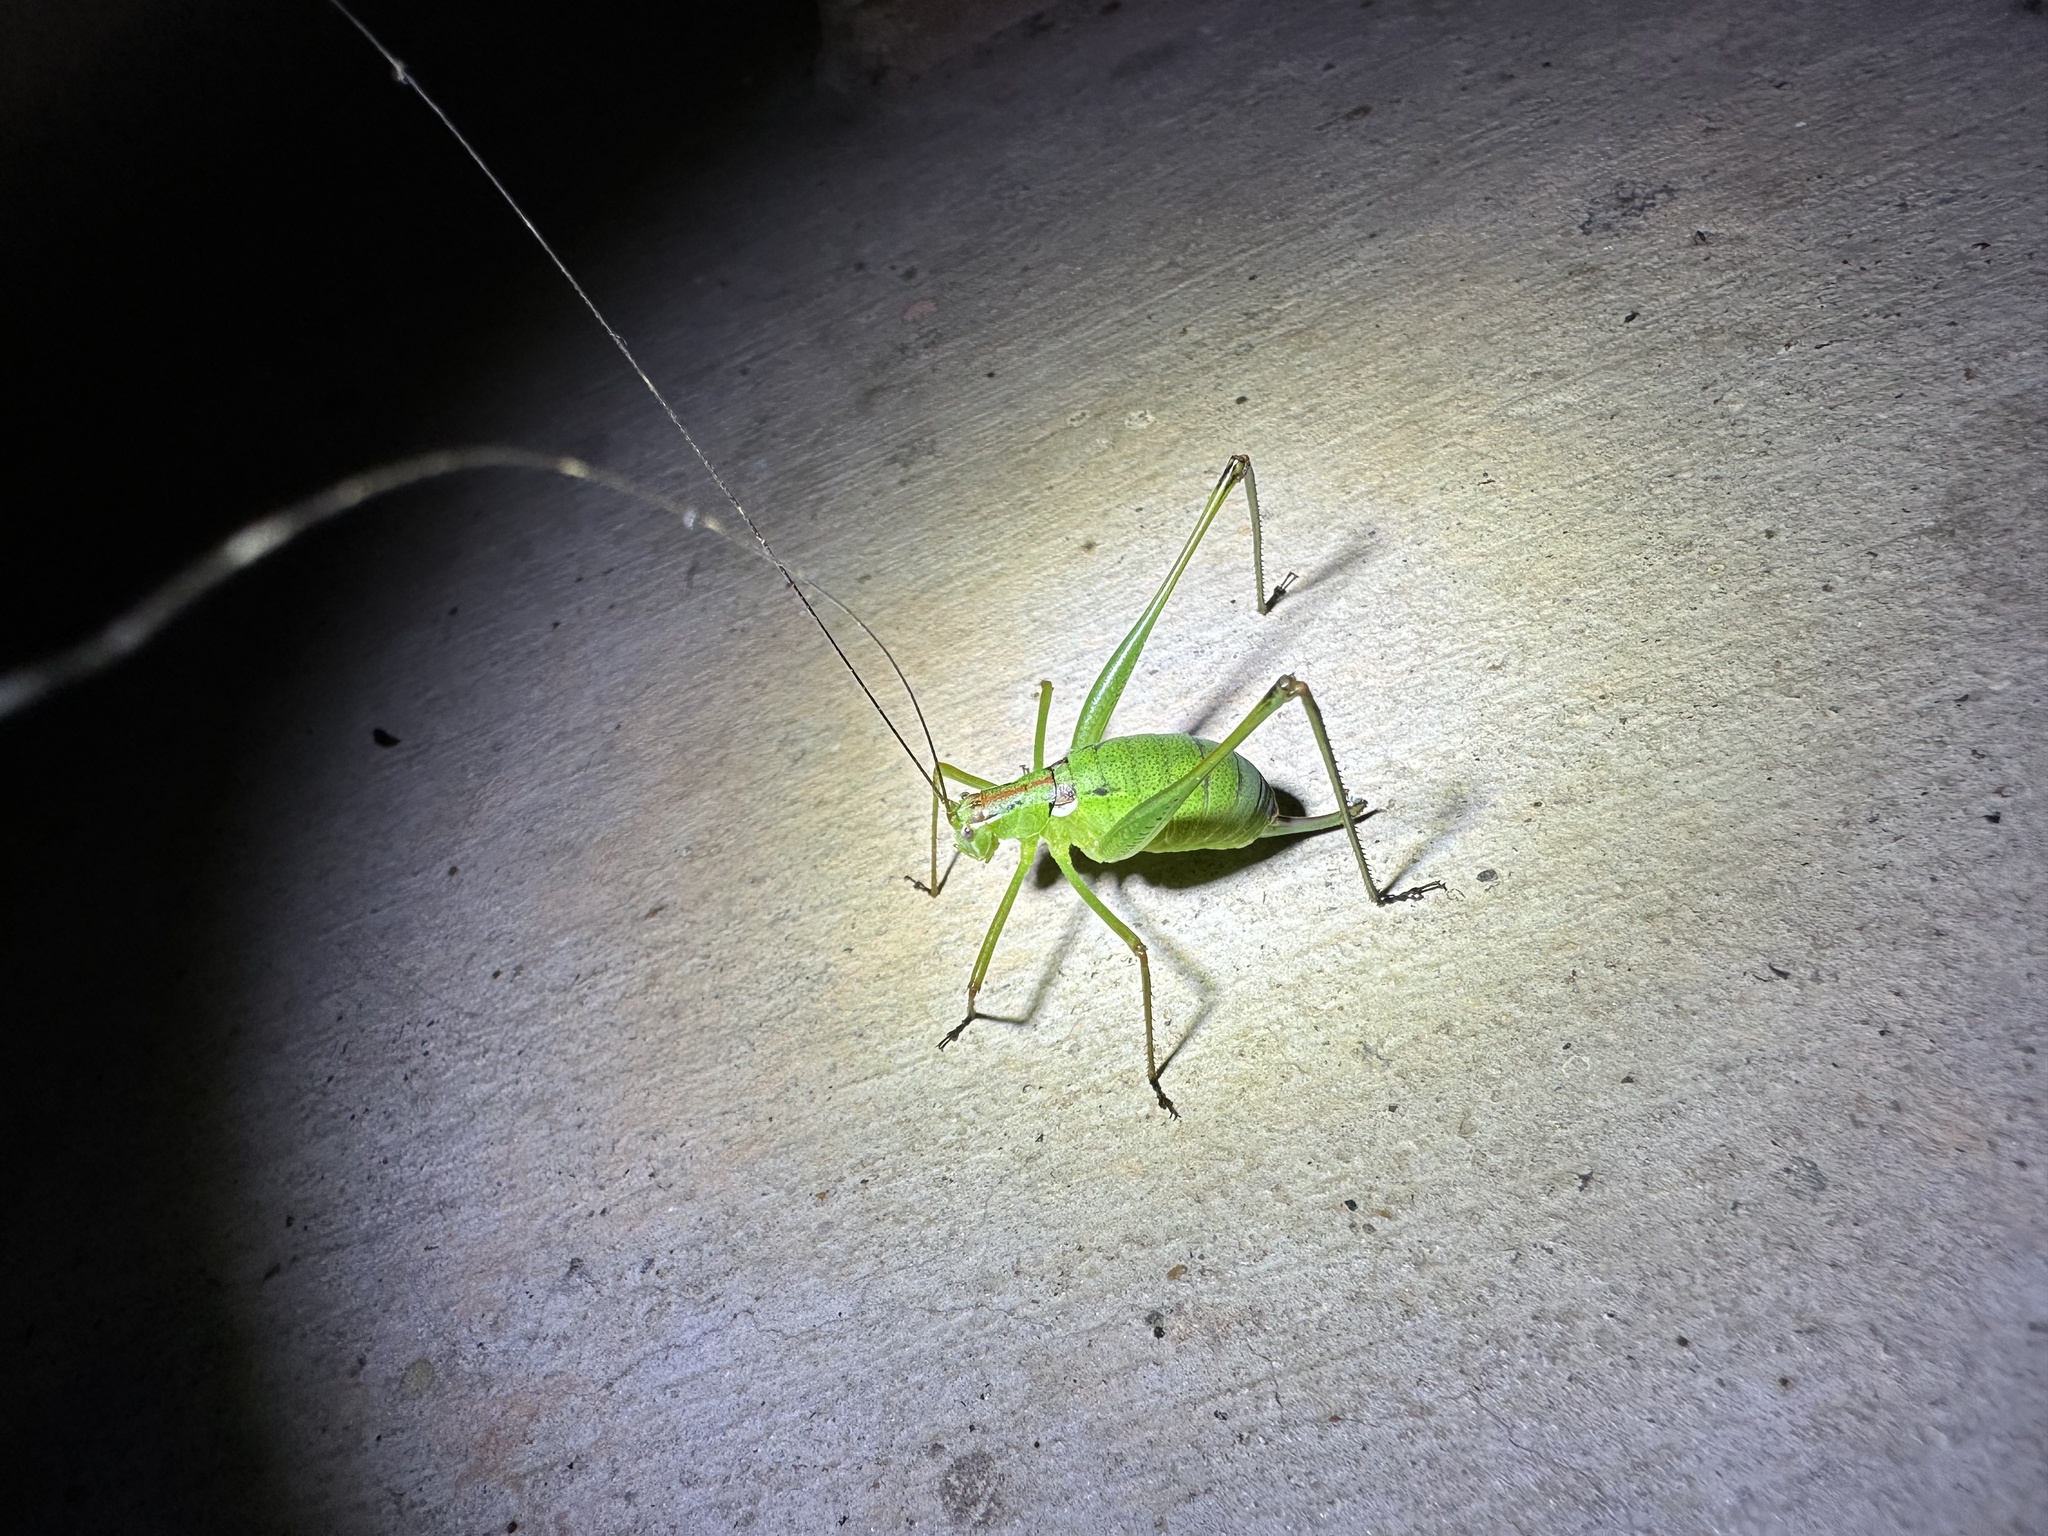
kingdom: Animalia
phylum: Arthropoda
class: Insecta
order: Orthoptera
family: Tettigoniidae
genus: Planipollex
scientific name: Planipollex pollicifer
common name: Thumb-bearing short-winged katydid
